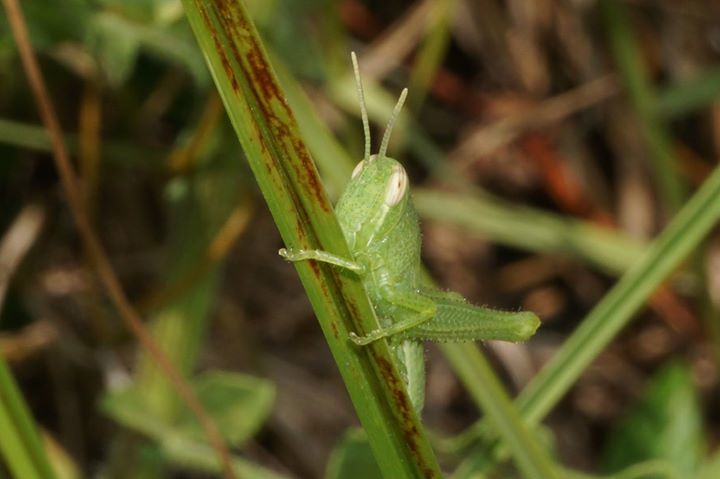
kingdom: Animalia
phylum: Arthropoda
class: Insecta
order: Orthoptera
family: Acrididae
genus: Schistocerca
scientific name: Schistocerca serialis
